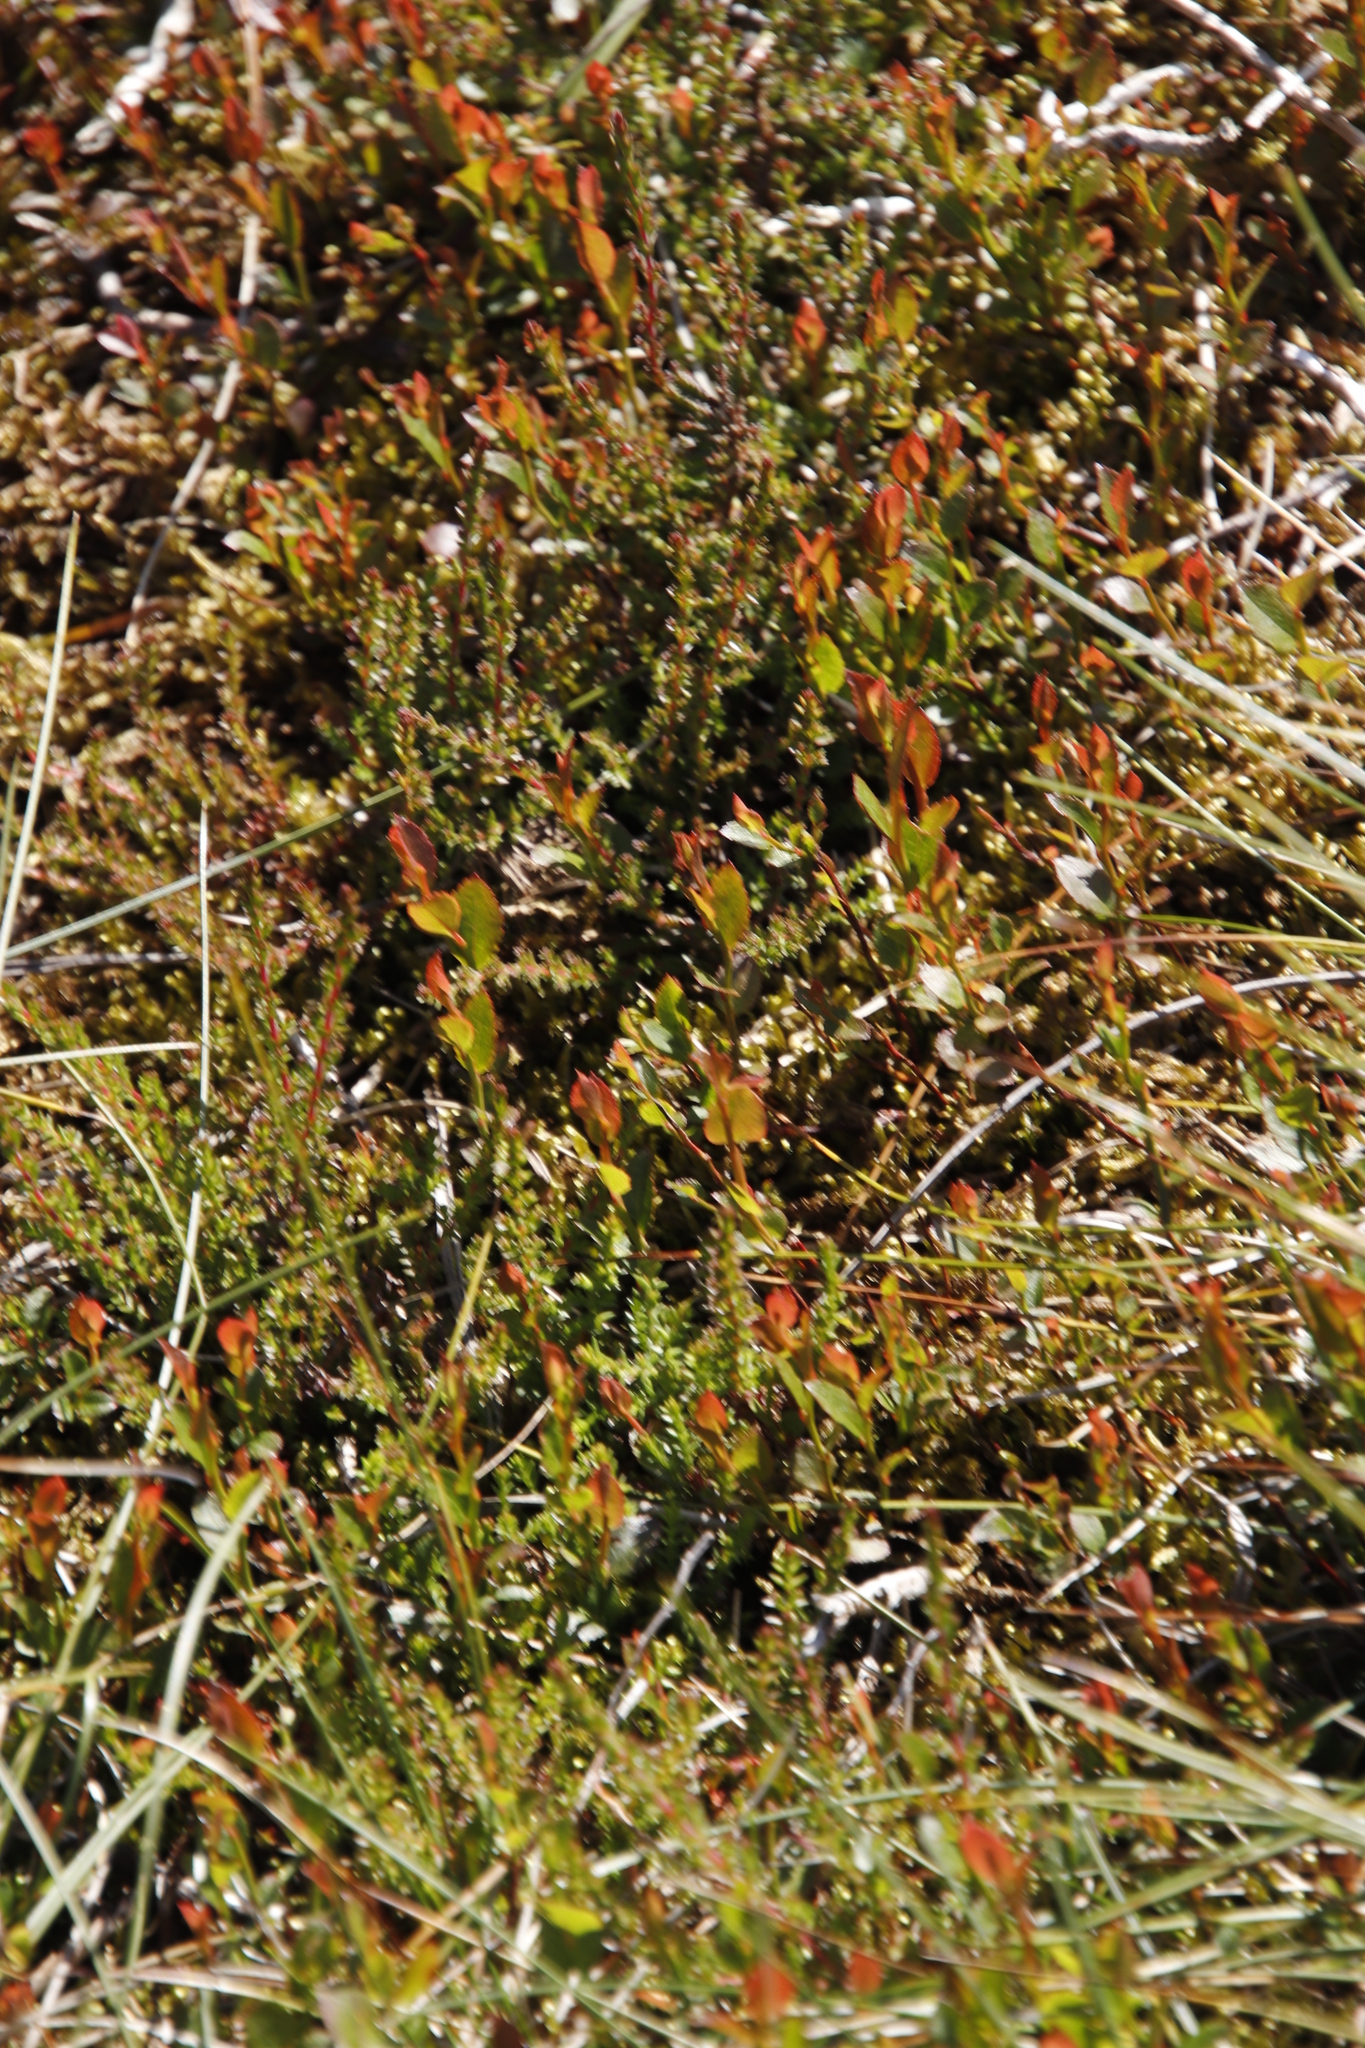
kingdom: Plantae
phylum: Tracheophyta
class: Magnoliopsida
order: Ericales
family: Ericaceae
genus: Vaccinium
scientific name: Vaccinium myrtillus
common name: Bilberry
